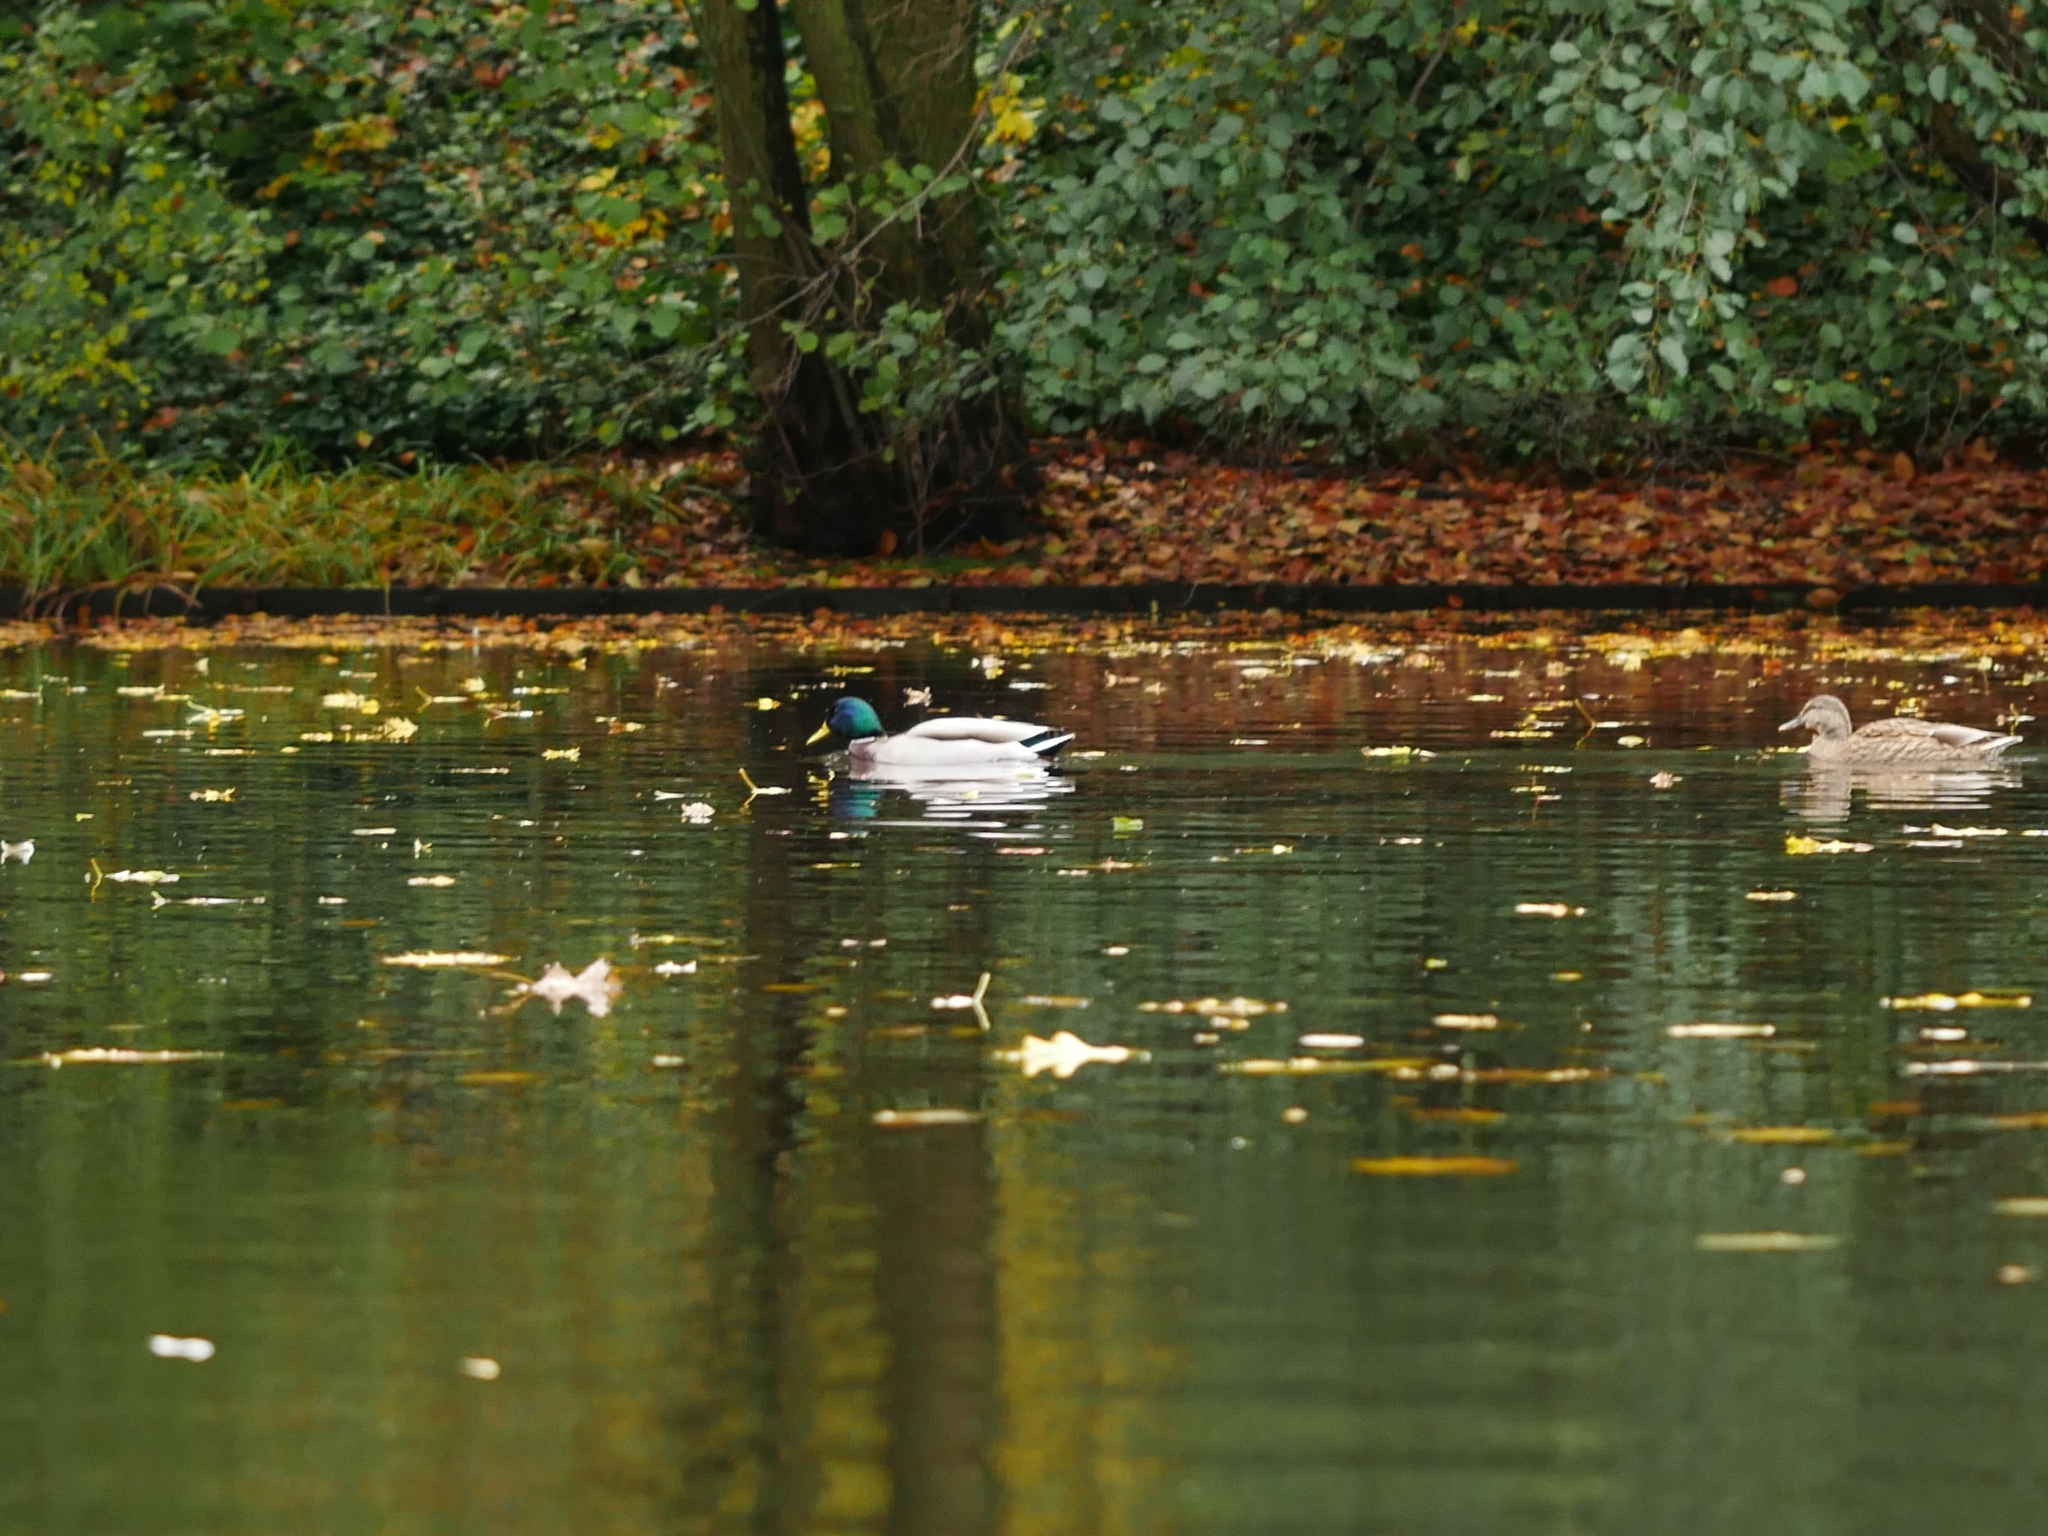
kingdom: Animalia
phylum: Chordata
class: Aves
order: Anseriformes
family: Anatidae
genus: Anas
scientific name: Anas platyrhynchos
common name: Mallard
